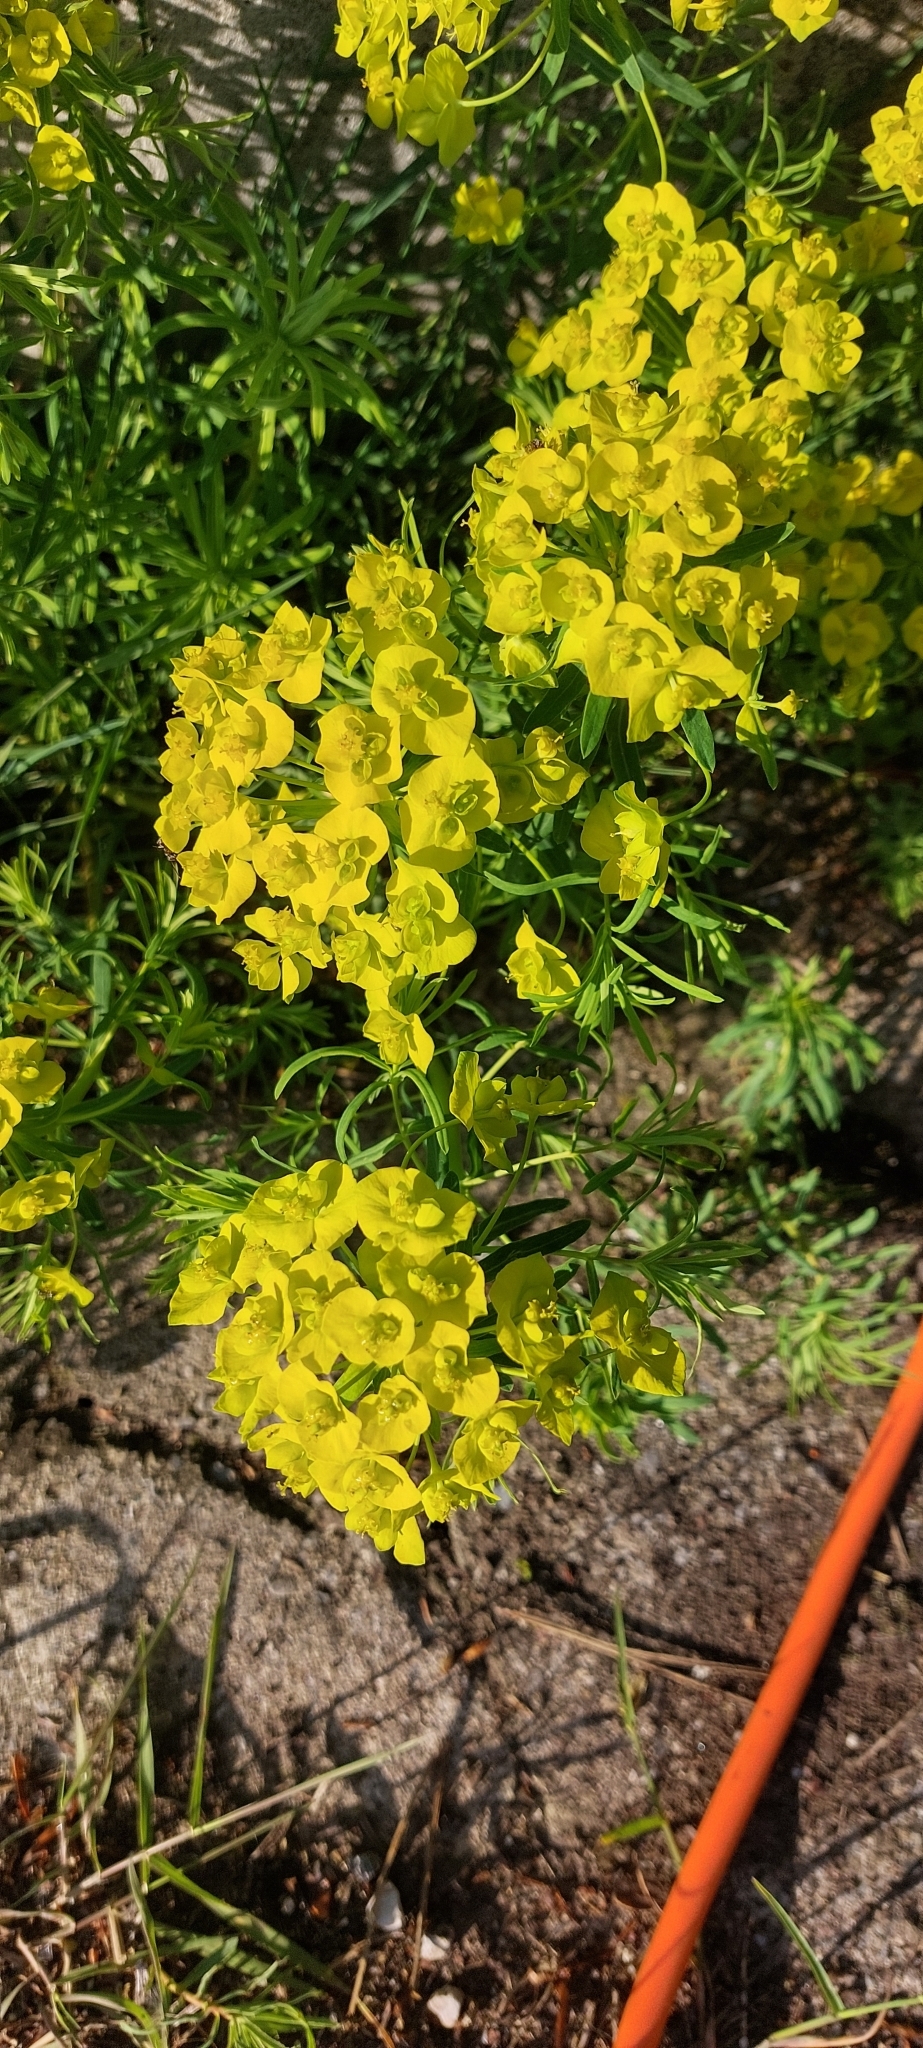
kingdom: Plantae
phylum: Tracheophyta
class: Magnoliopsida
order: Malpighiales
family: Euphorbiaceae
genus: Euphorbia
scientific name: Euphorbia cyparissias
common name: Cypress spurge
